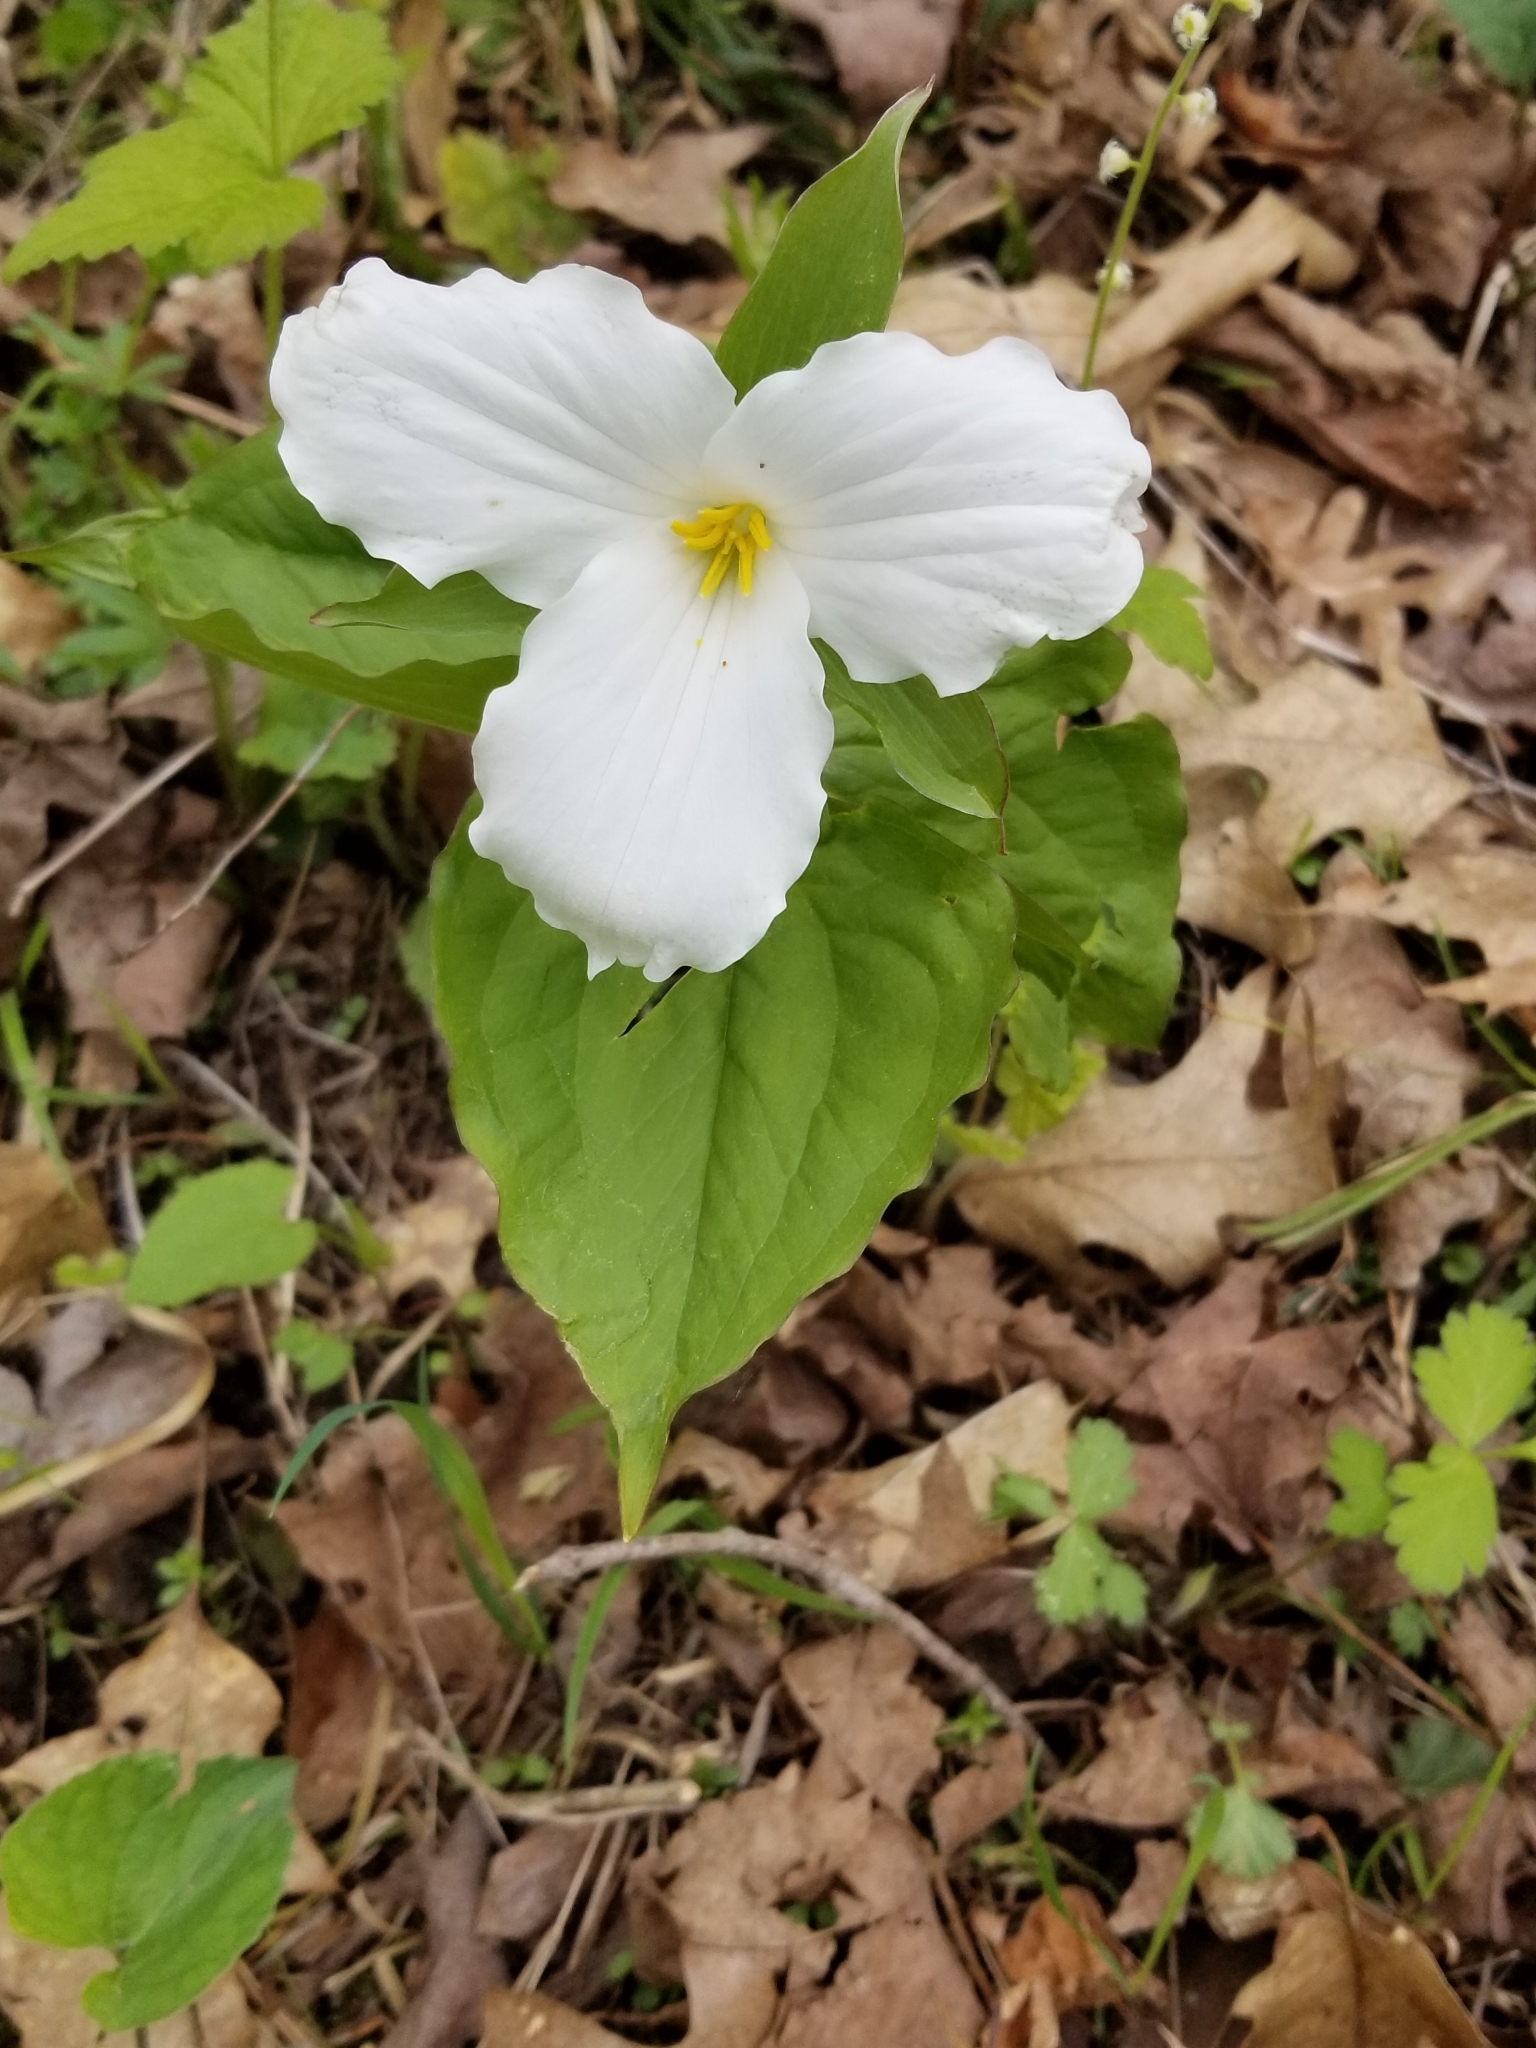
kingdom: Plantae
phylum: Tracheophyta
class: Liliopsida
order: Liliales
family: Melanthiaceae
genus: Trillium
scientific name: Trillium grandiflorum
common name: Great white trillium
